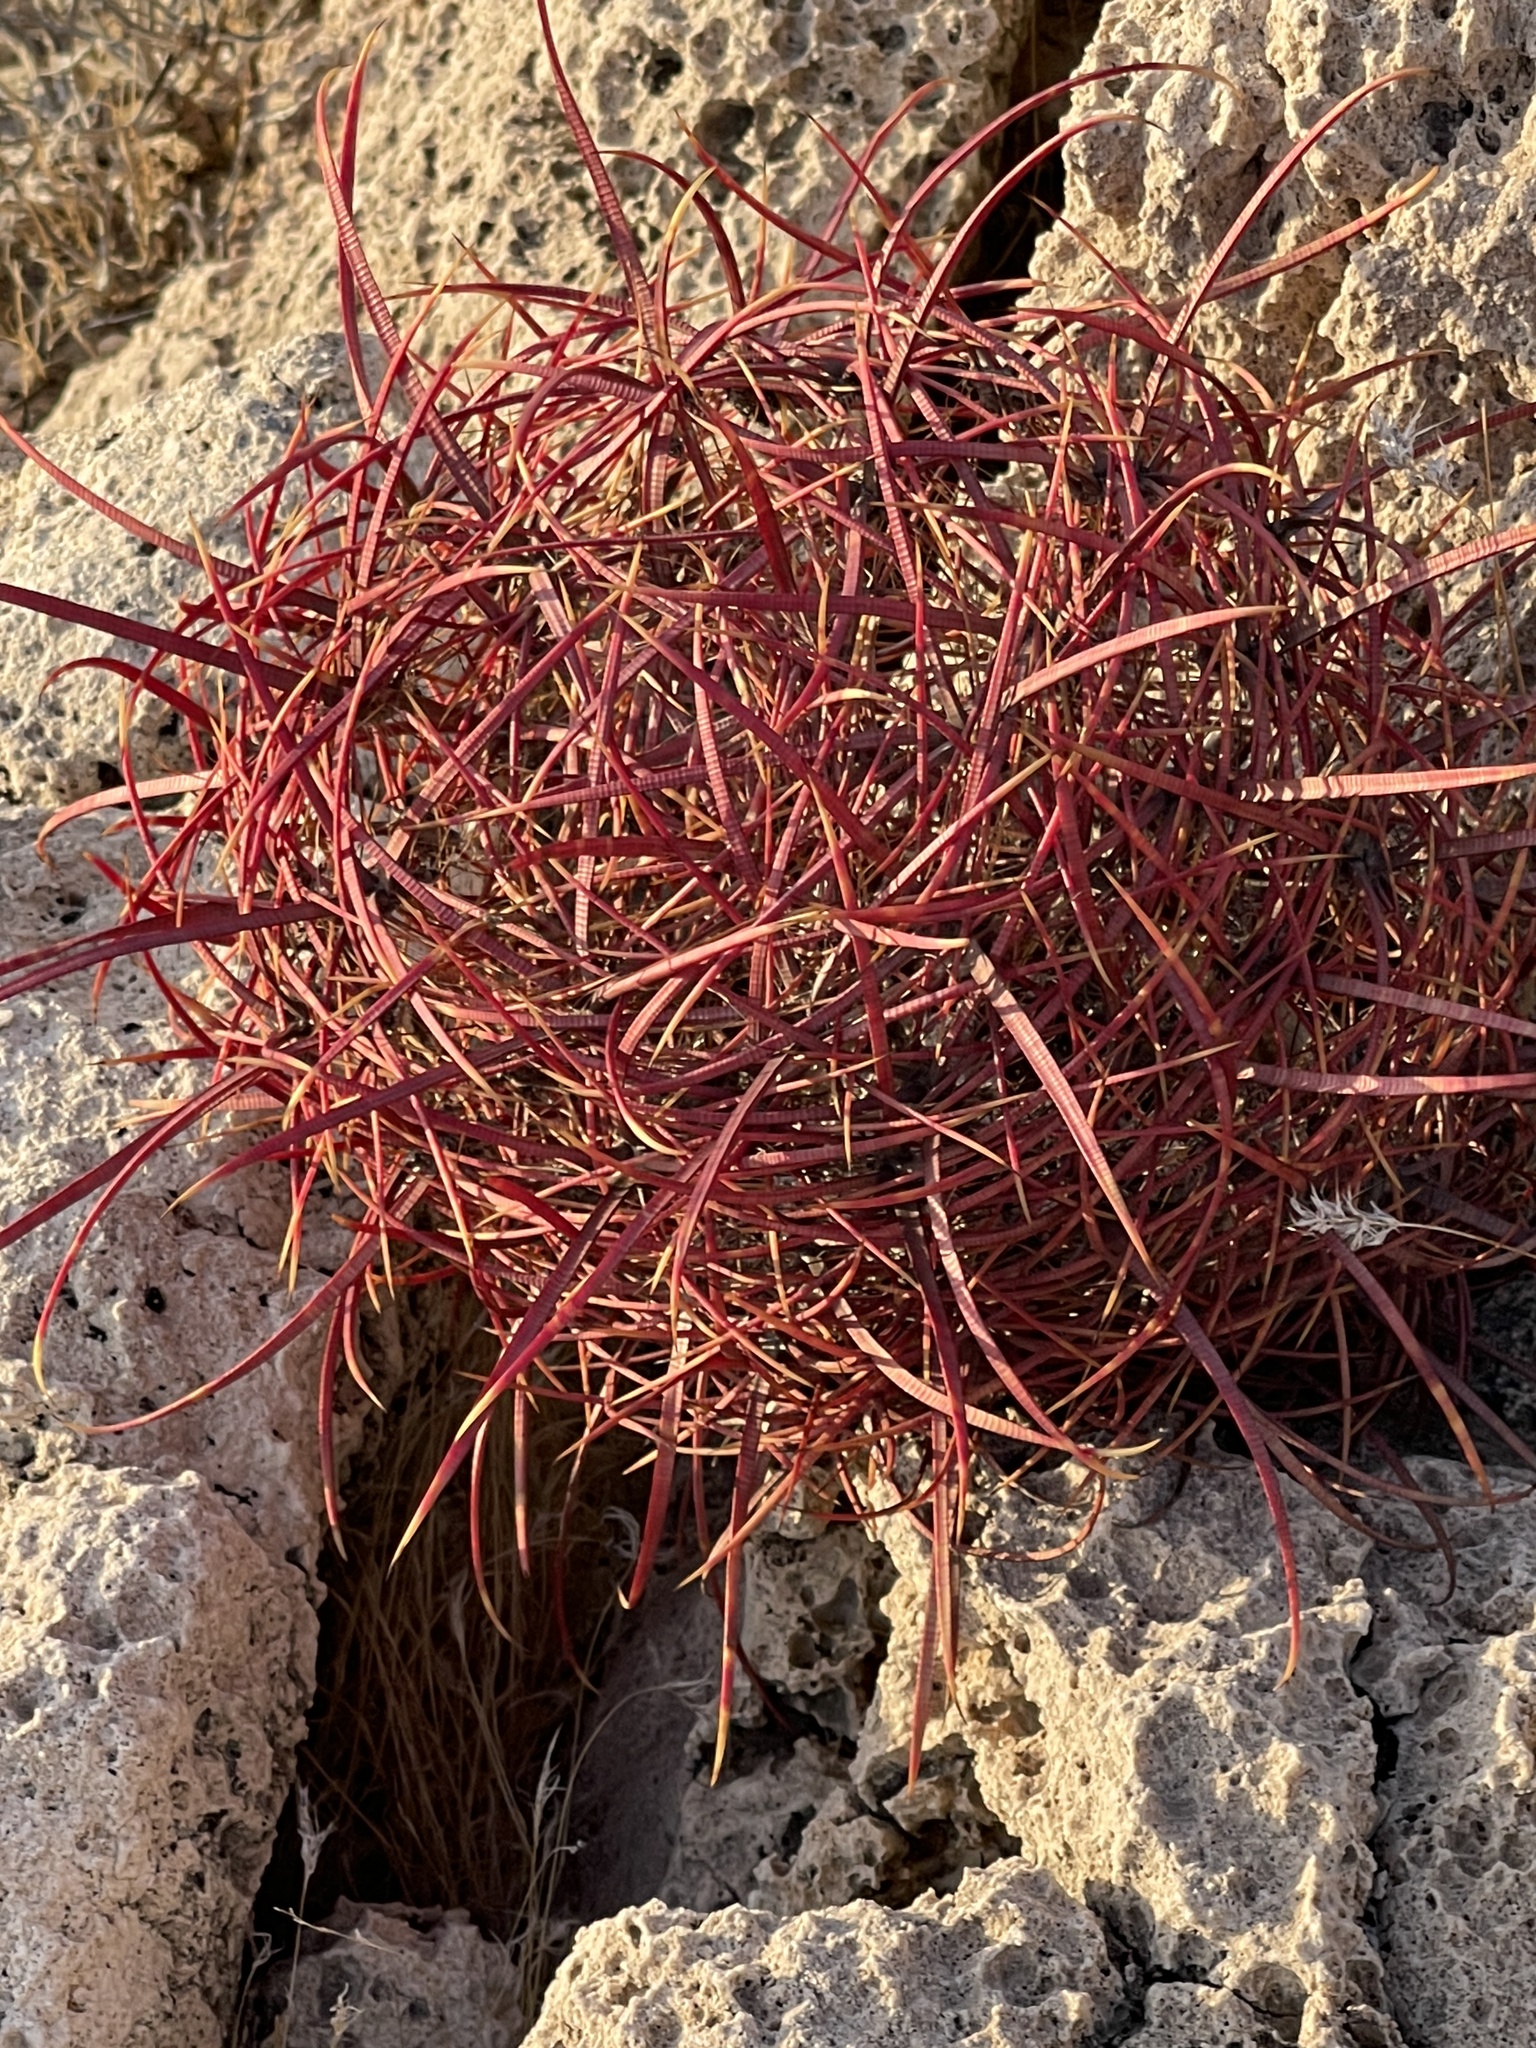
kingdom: Plantae
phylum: Tracheophyta
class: Magnoliopsida
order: Caryophyllales
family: Cactaceae
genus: Ferocactus
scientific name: Ferocactus cylindraceus
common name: California barrel cactus
